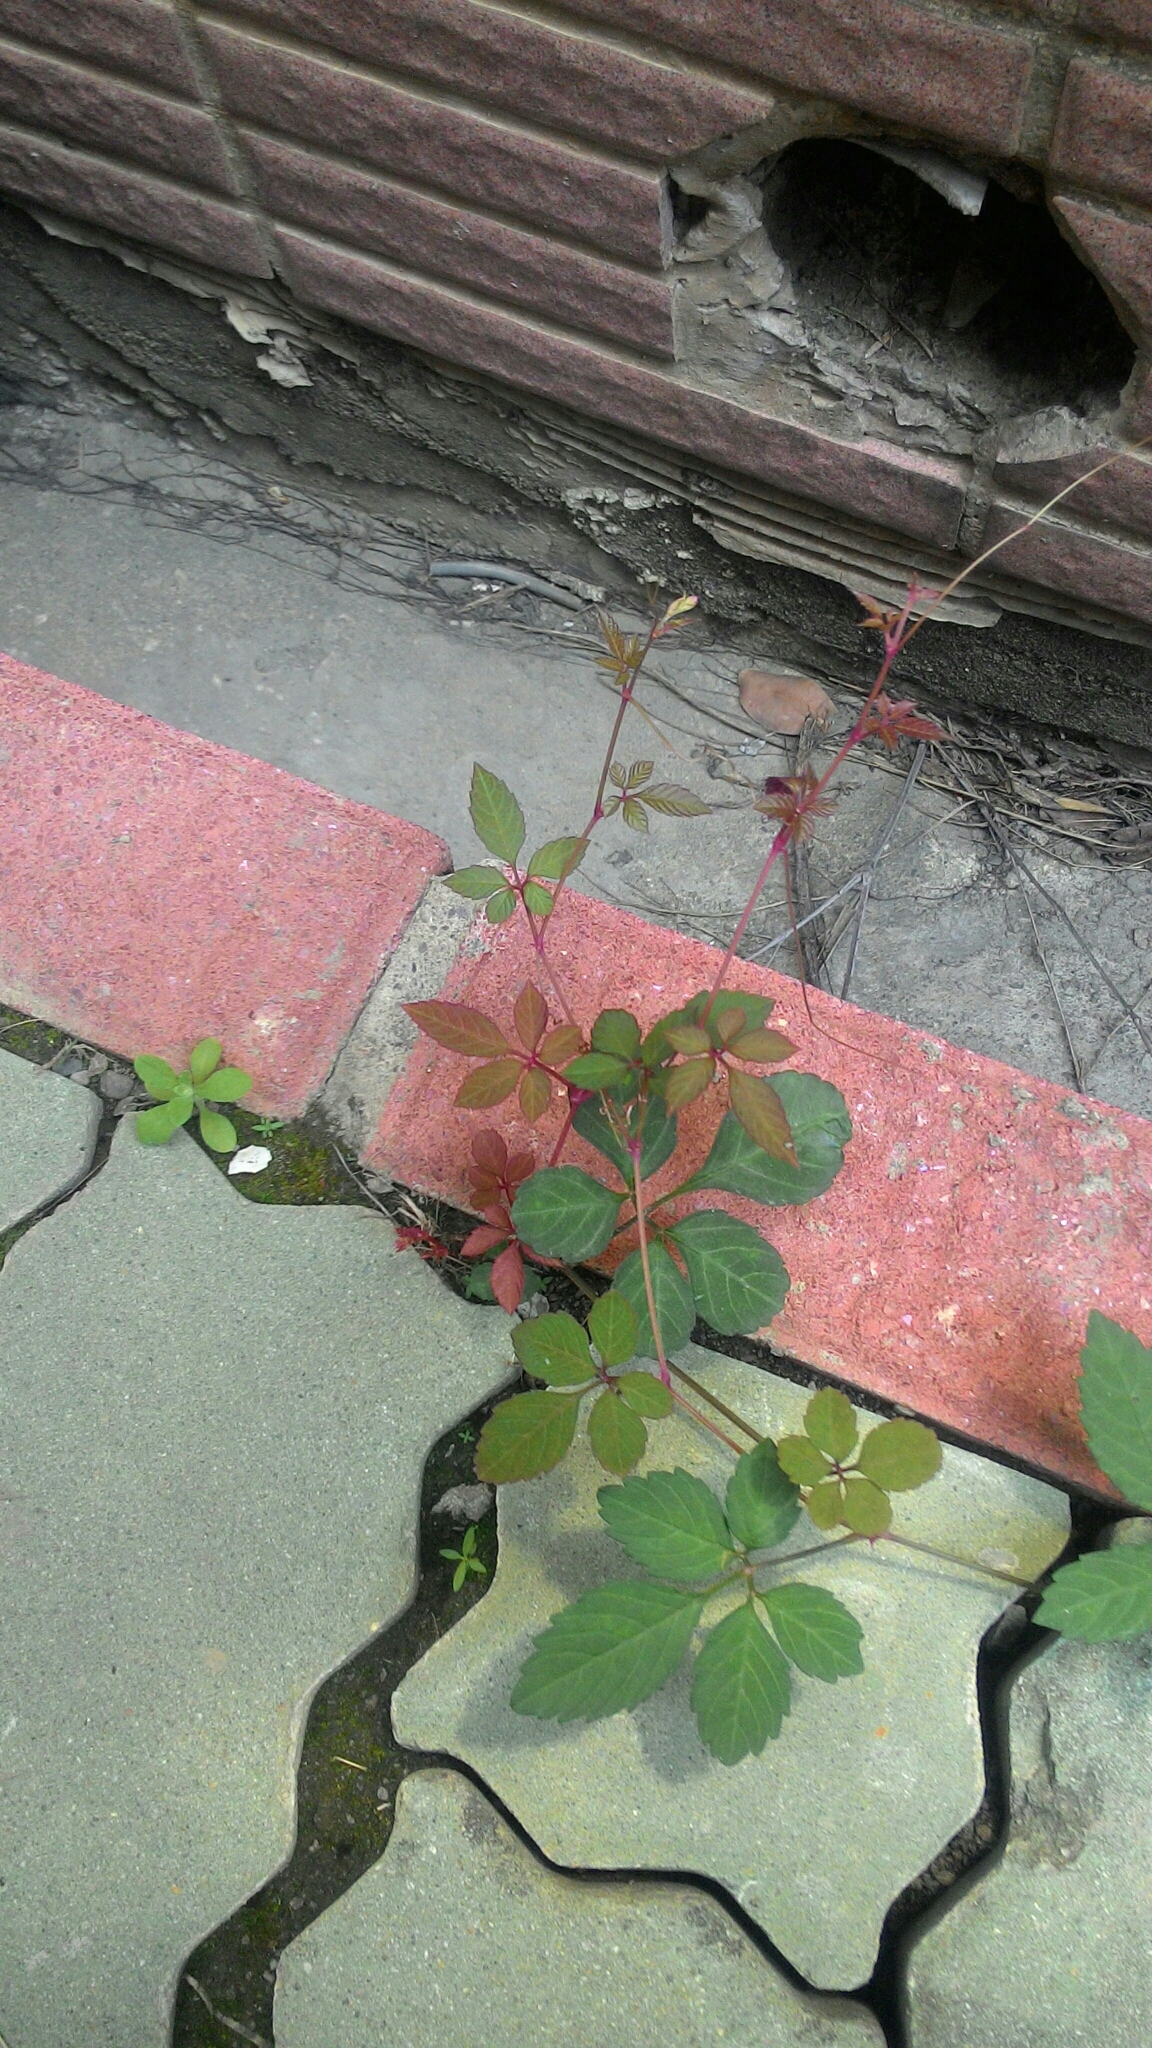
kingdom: Plantae
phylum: Tracheophyta
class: Magnoliopsida
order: Vitales
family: Vitaceae
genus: Causonis
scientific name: Causonis japonica
